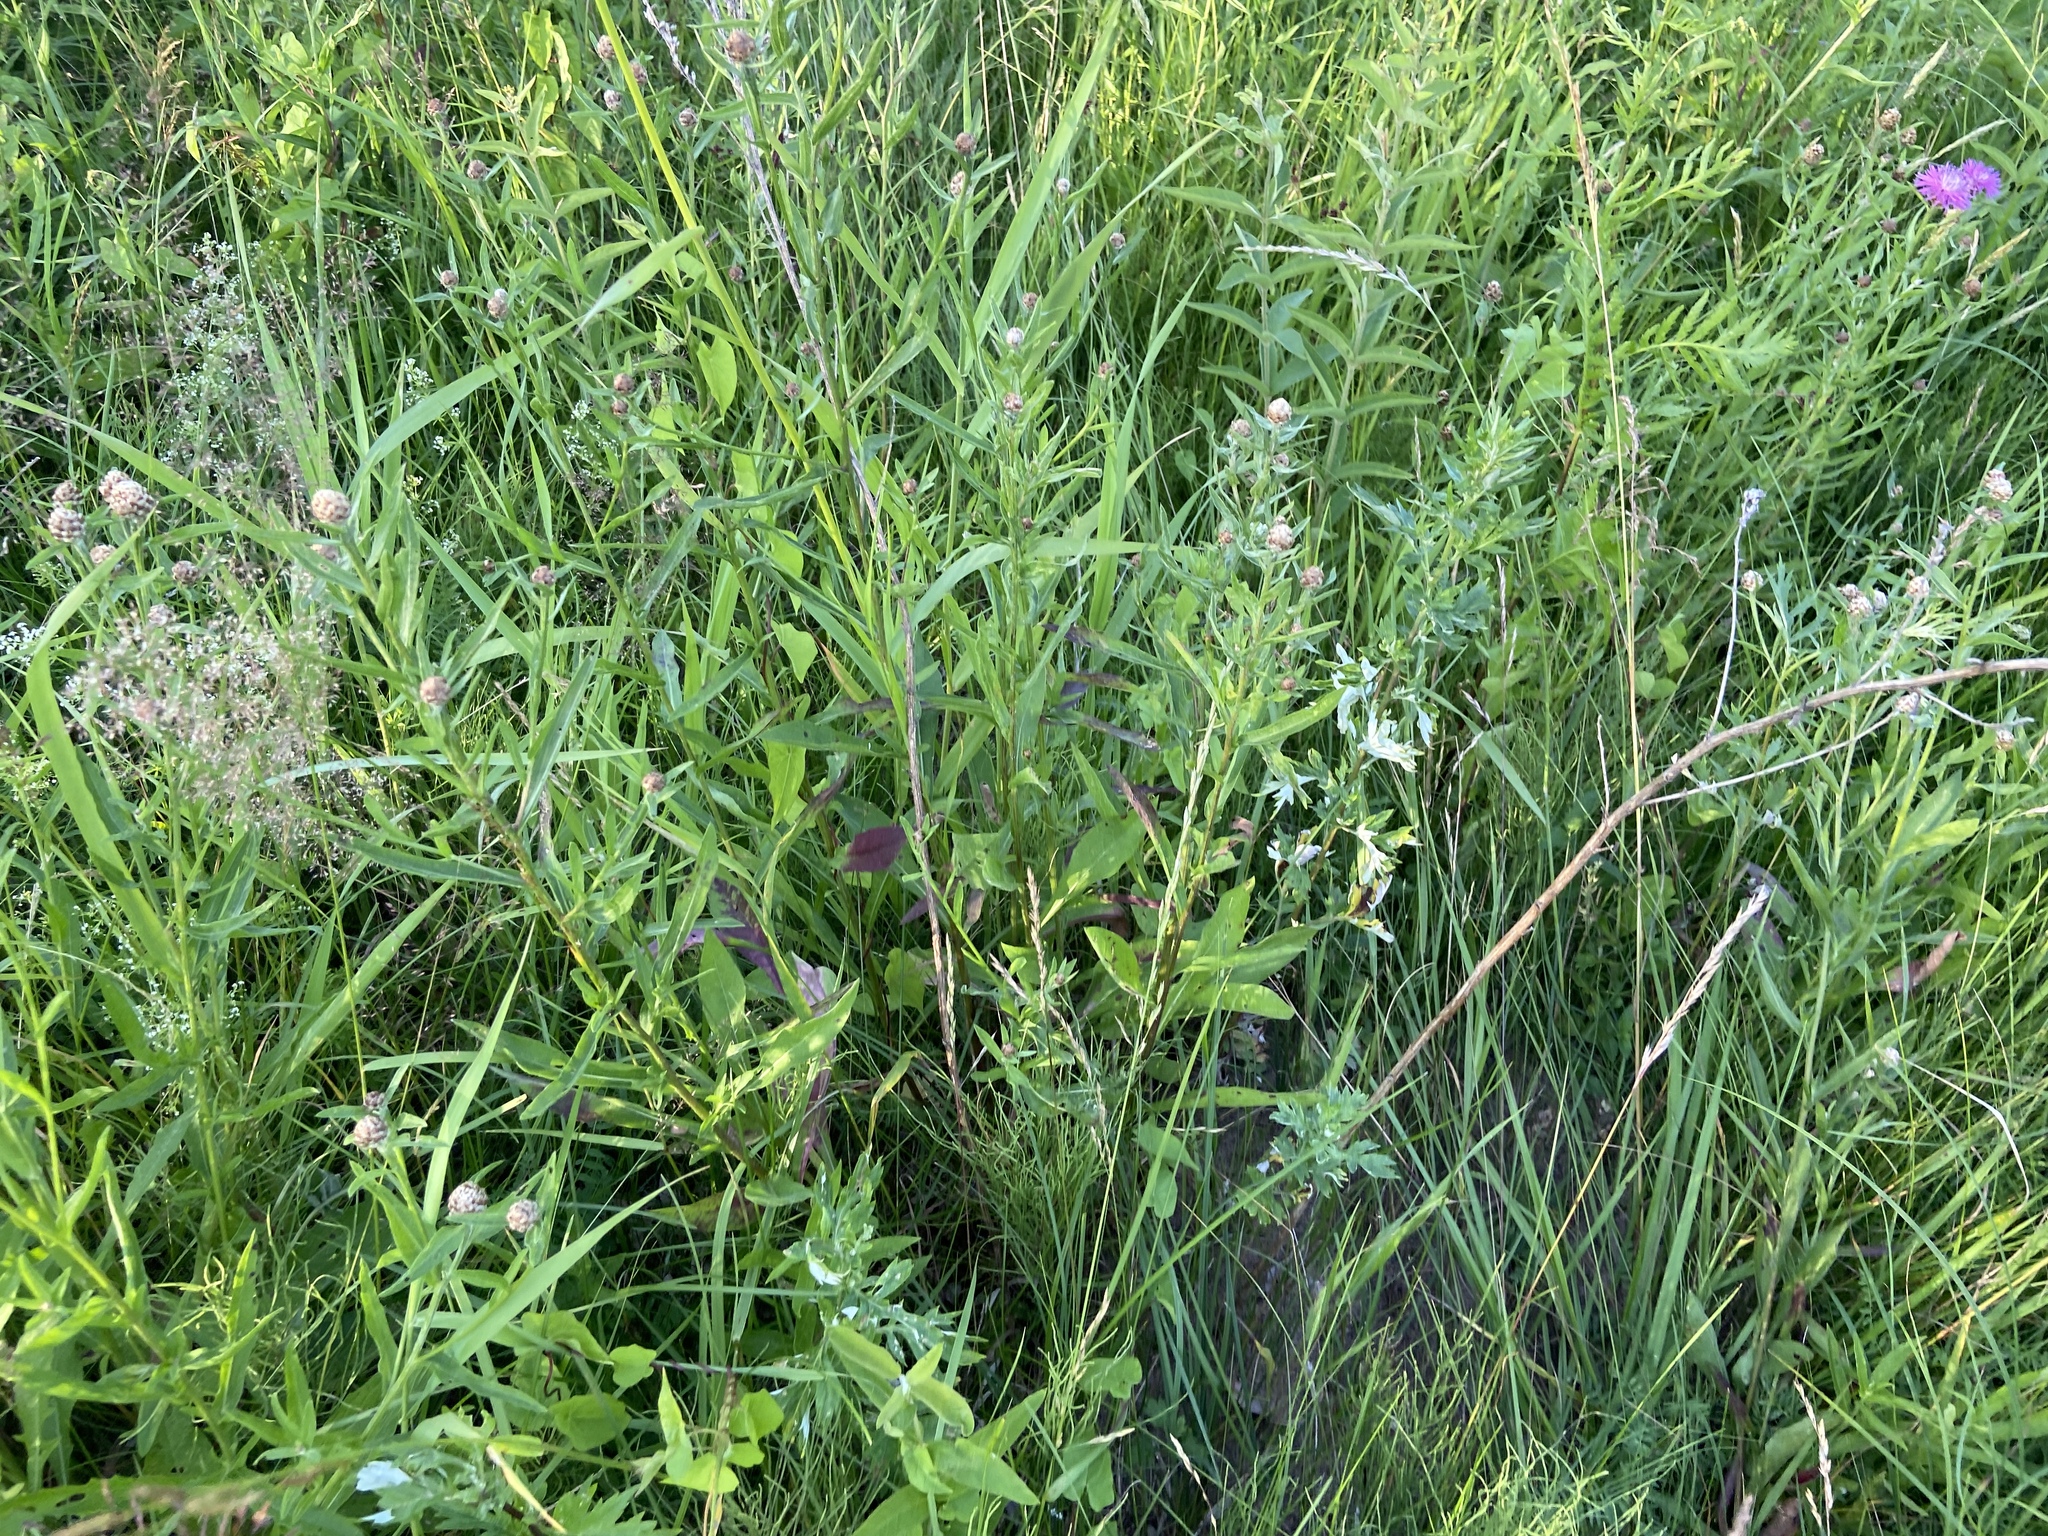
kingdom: Plantae
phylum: Tracheophyta
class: Magnoliopsida
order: Asterales
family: Asteraceae
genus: Centaurea
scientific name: Centaurea jacea
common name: Brown knapweed
